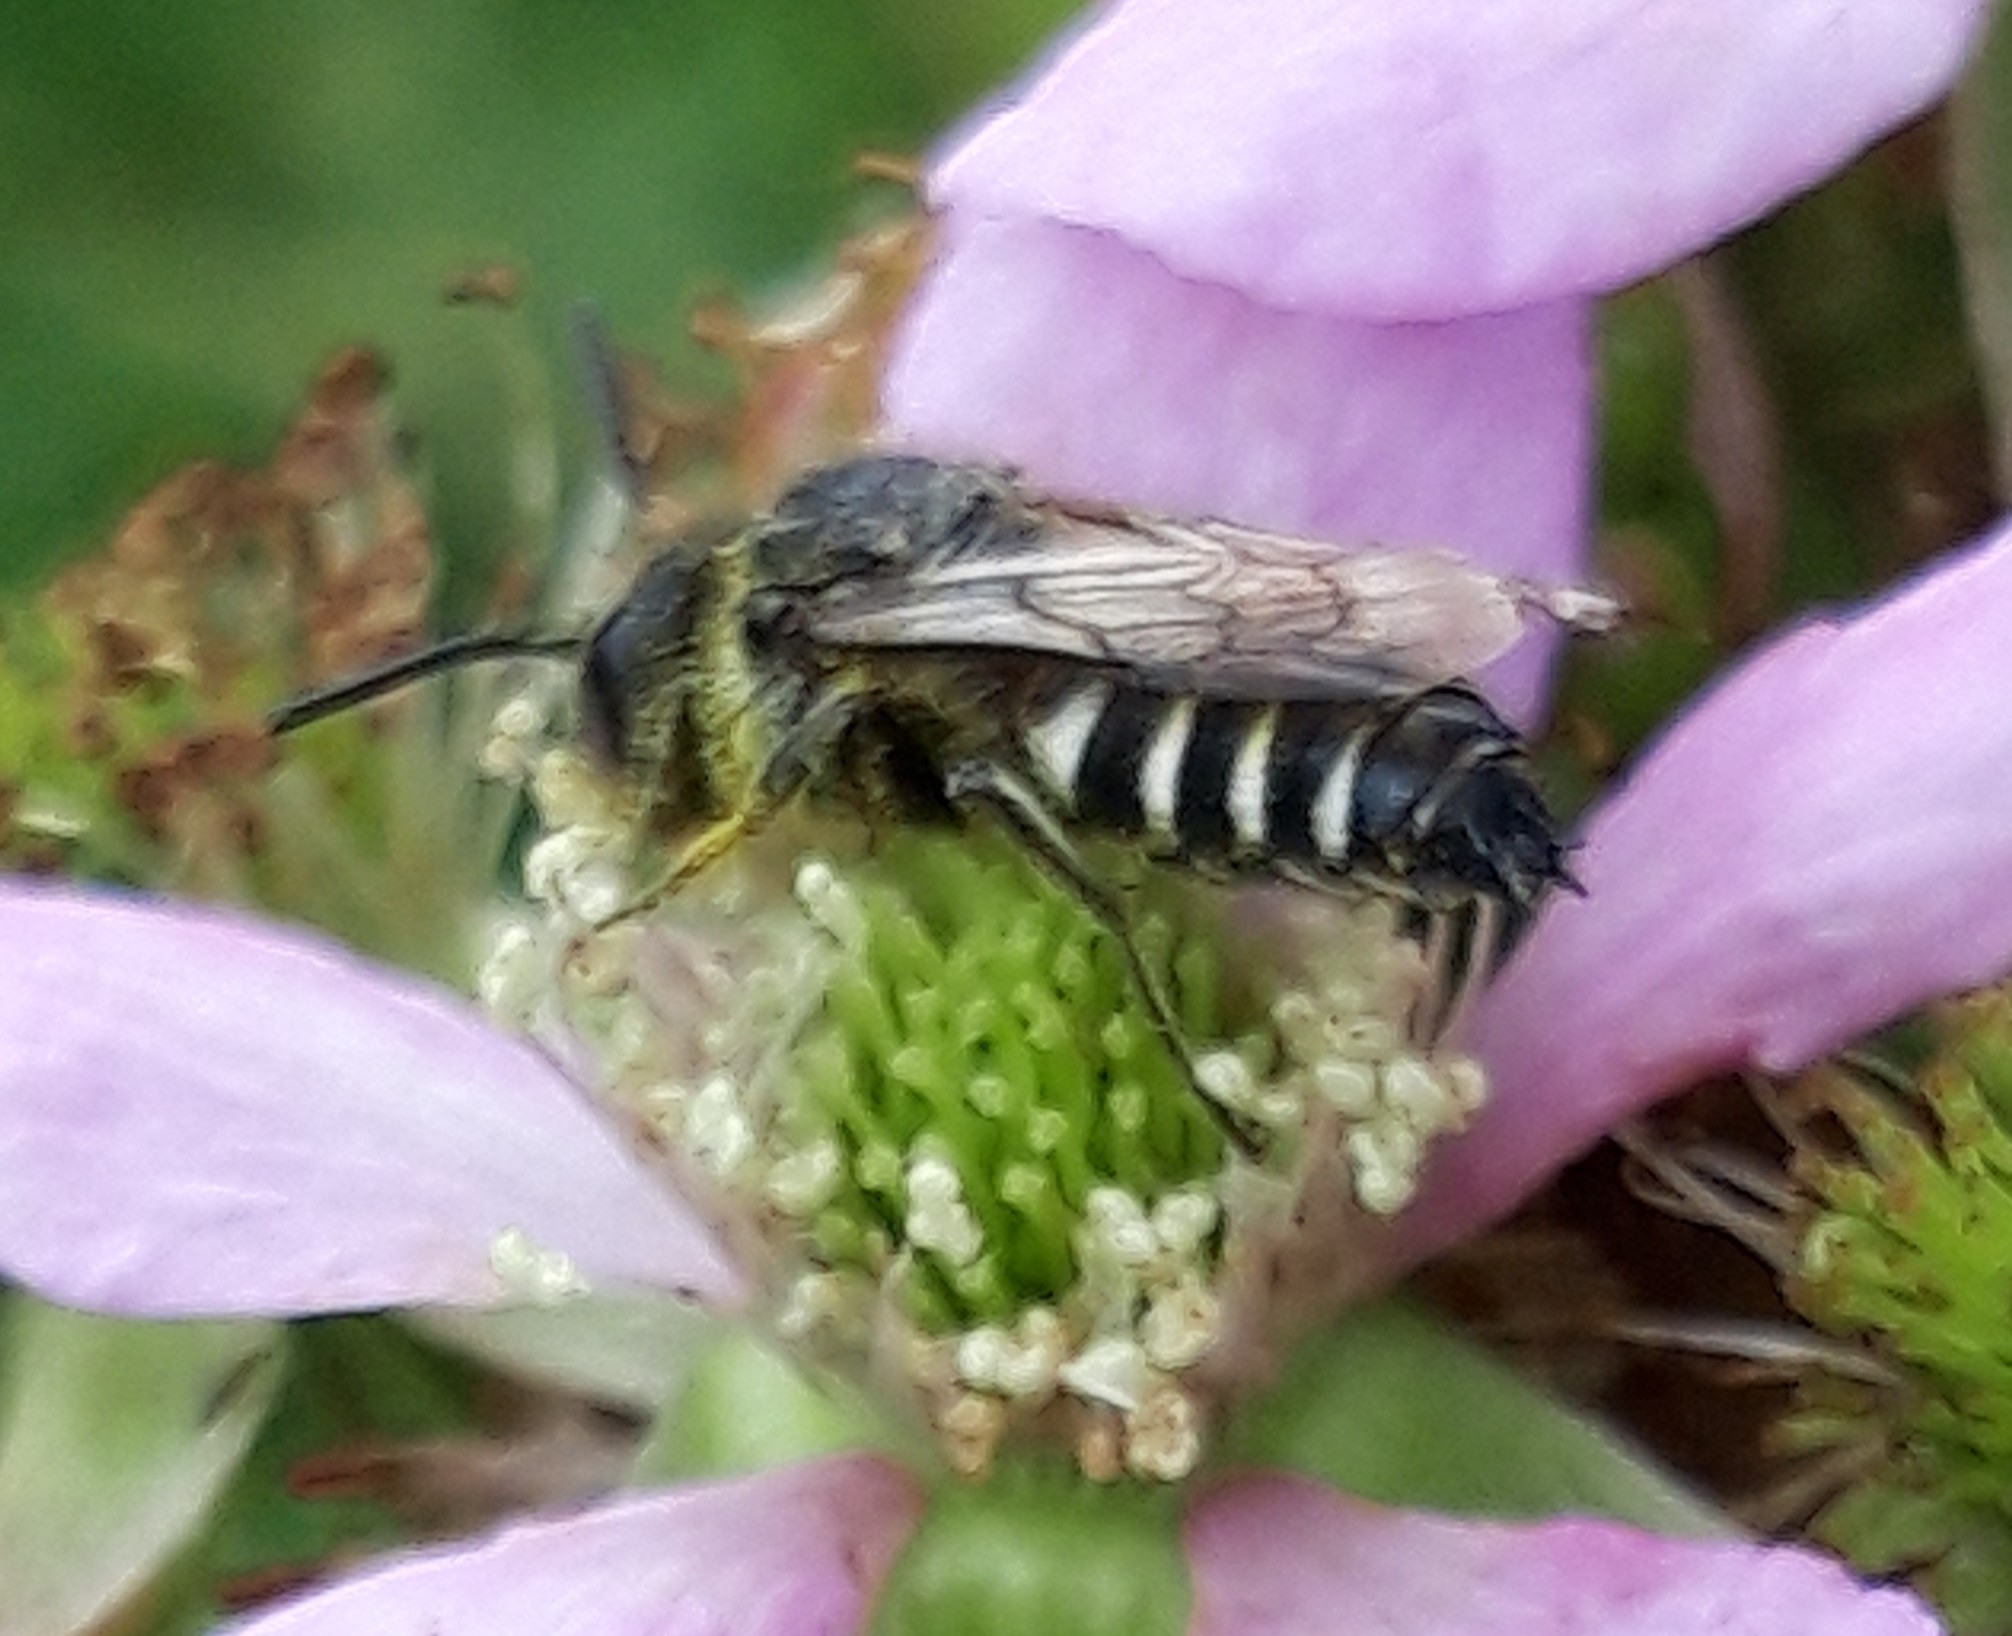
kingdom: Animalia
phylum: Arthropoda
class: Insecta
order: Hymenoptera
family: Megachilidae
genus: Coelioxys
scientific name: Coelioxys elongatus
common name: Dull-vented sharp-tail bee
